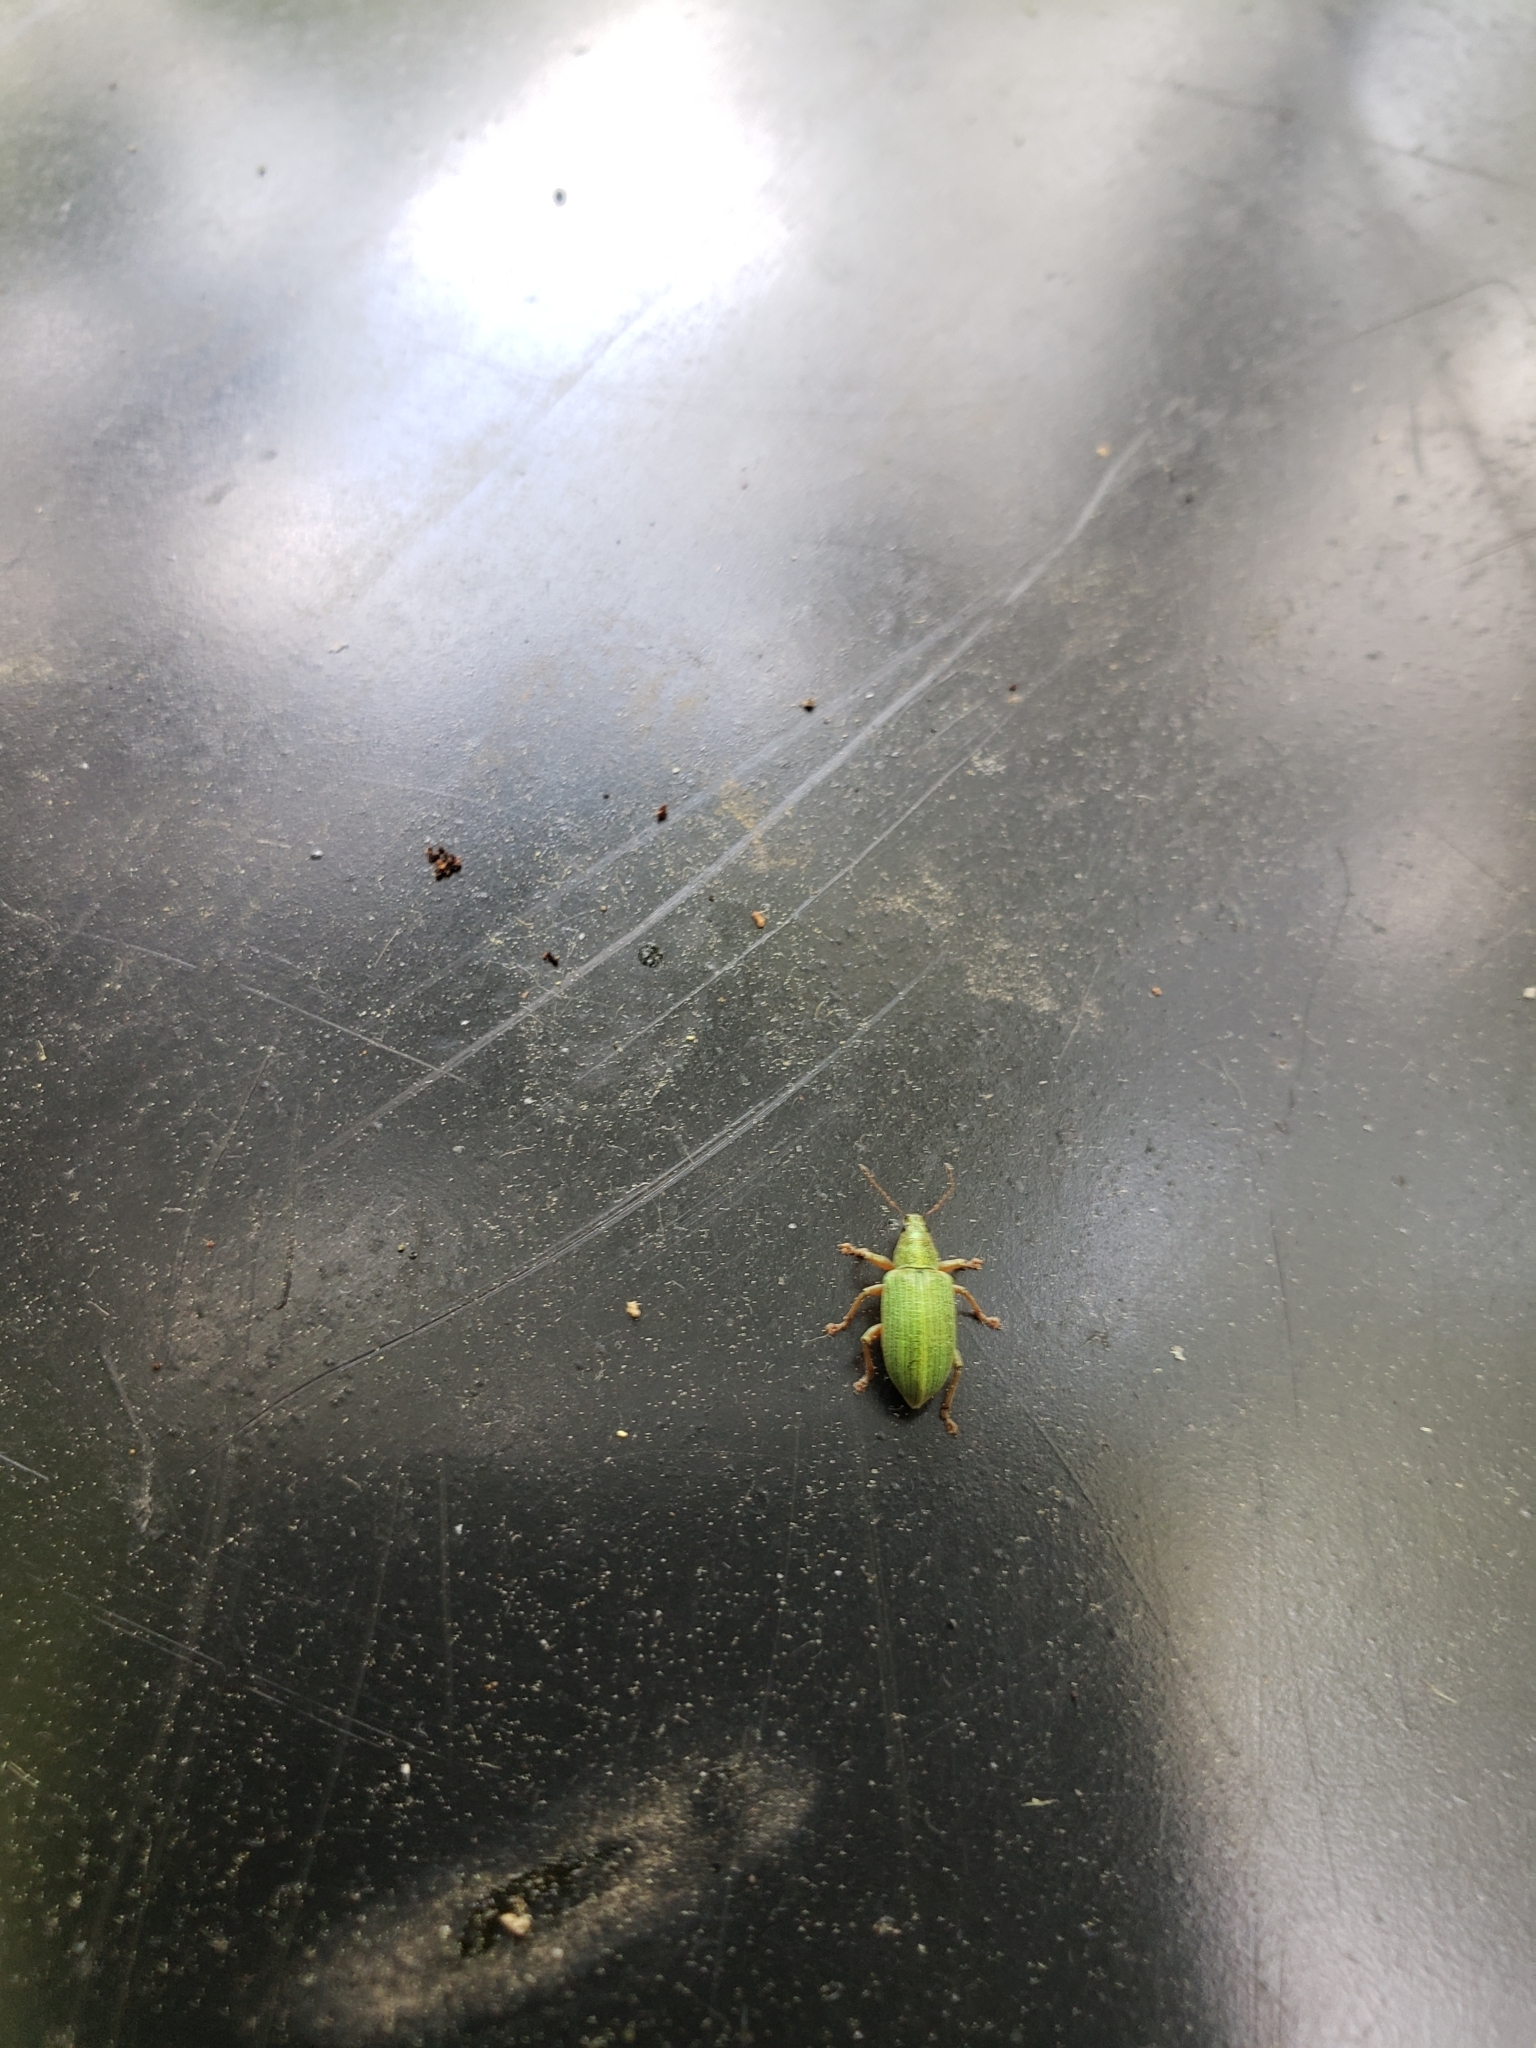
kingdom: Animalia
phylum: Arthropoda
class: Insecta
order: Coleoptera
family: Curculionidae
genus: Polydrusus
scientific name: Polydrusus formosus
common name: Weevil
